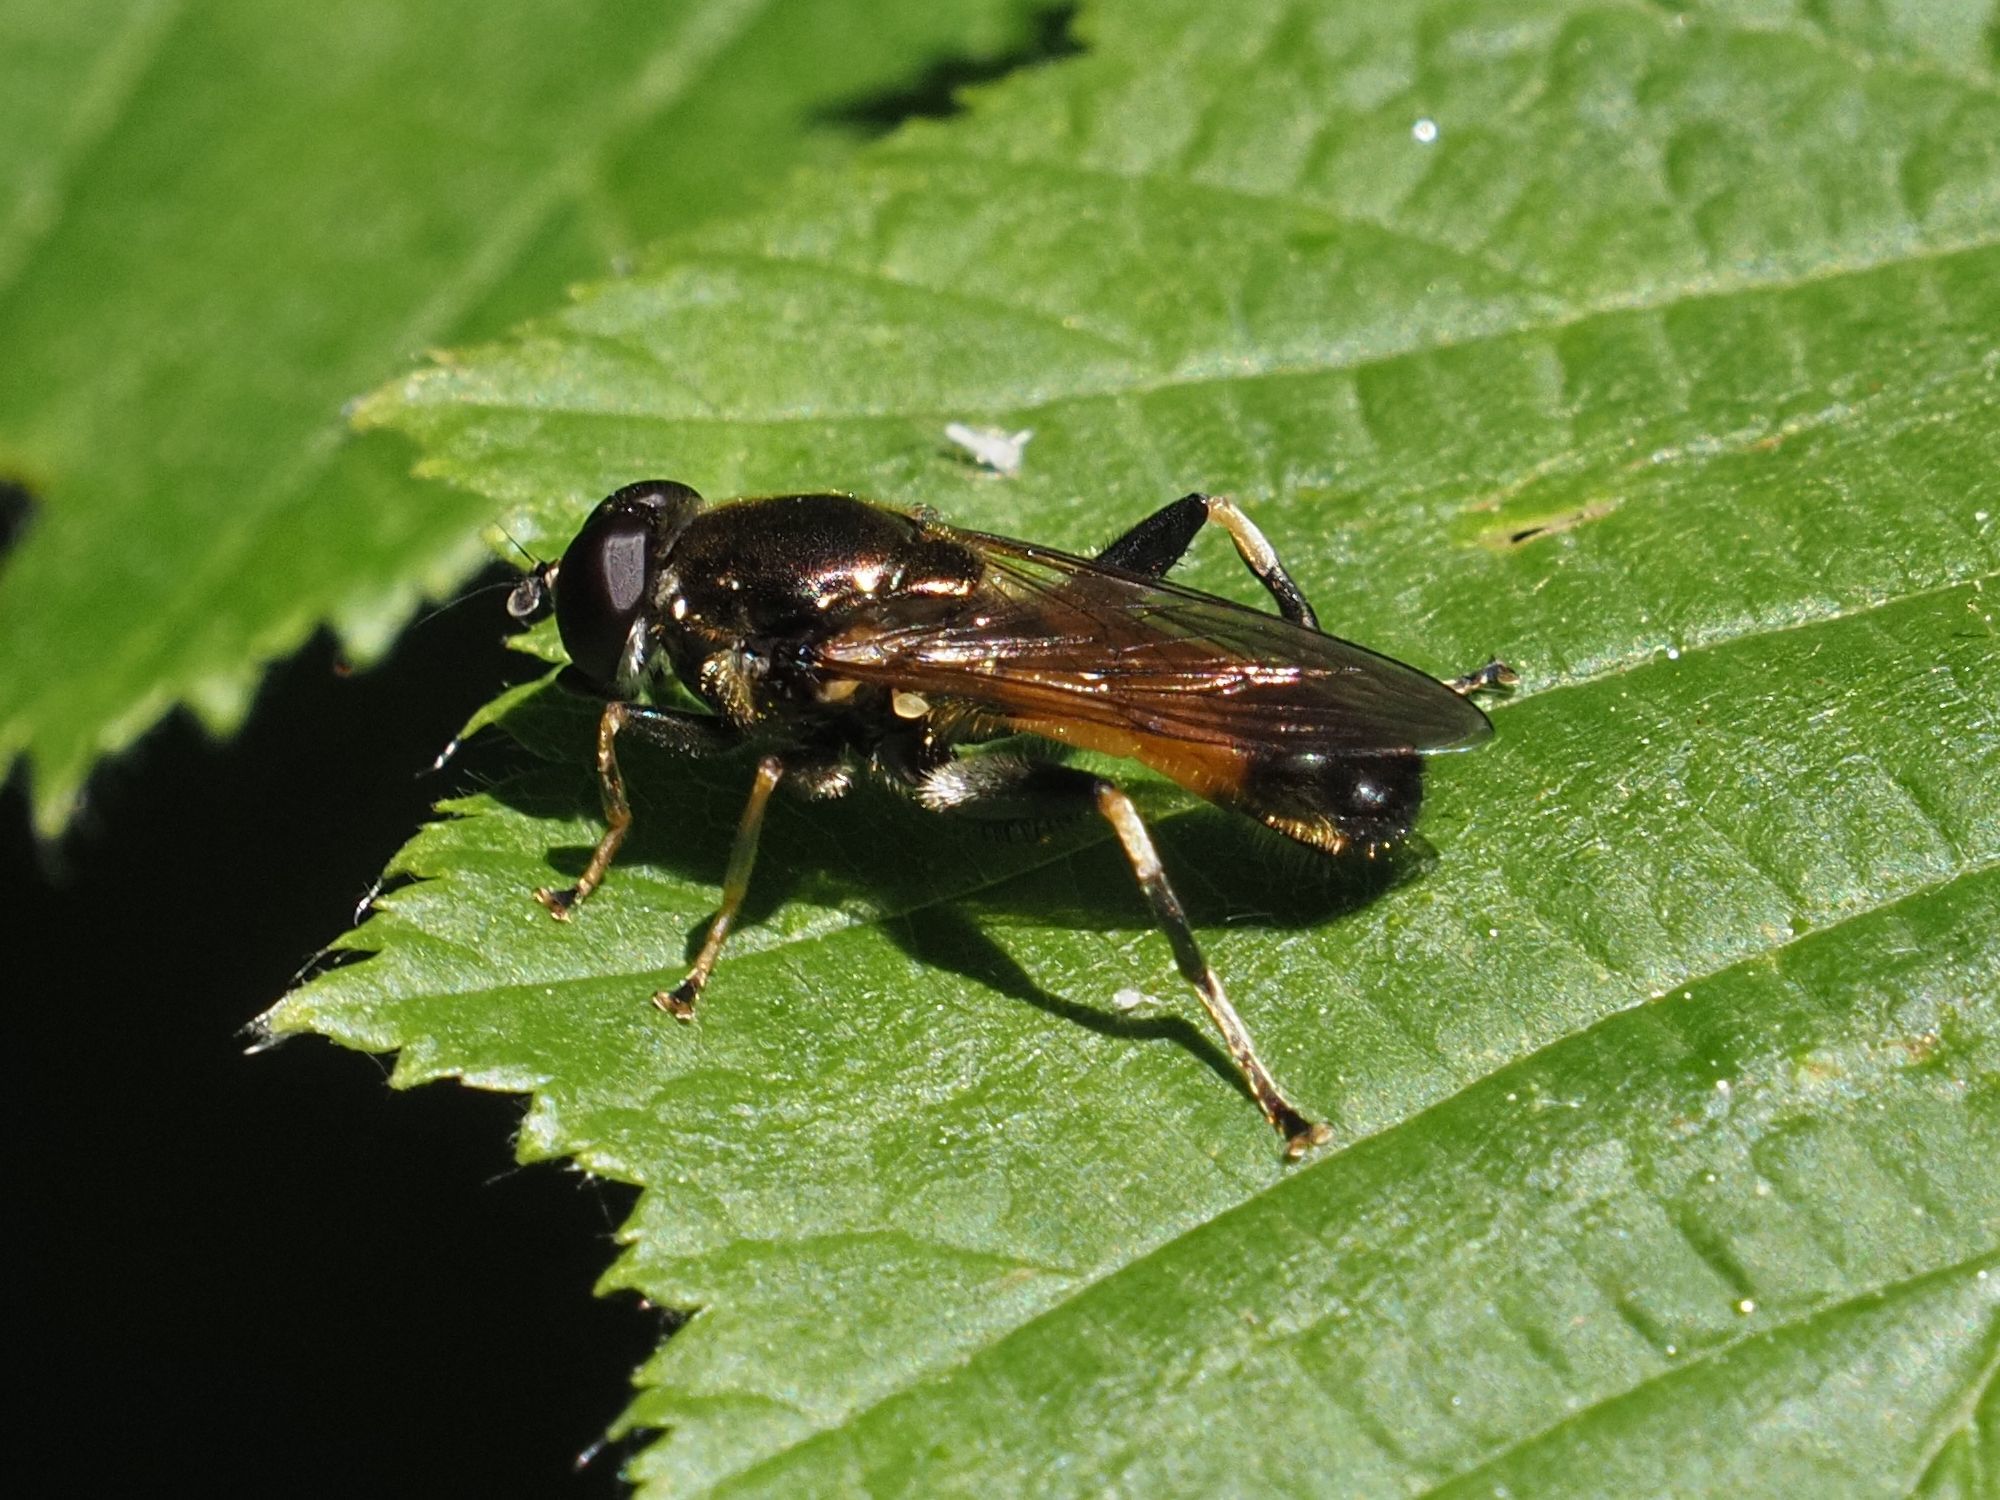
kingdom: Animalia
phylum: Arthropoda
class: Insecta
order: Diptera
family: Syrphidae
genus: Xylota
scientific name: Xylota segnis
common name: Brown-toed forest fly
